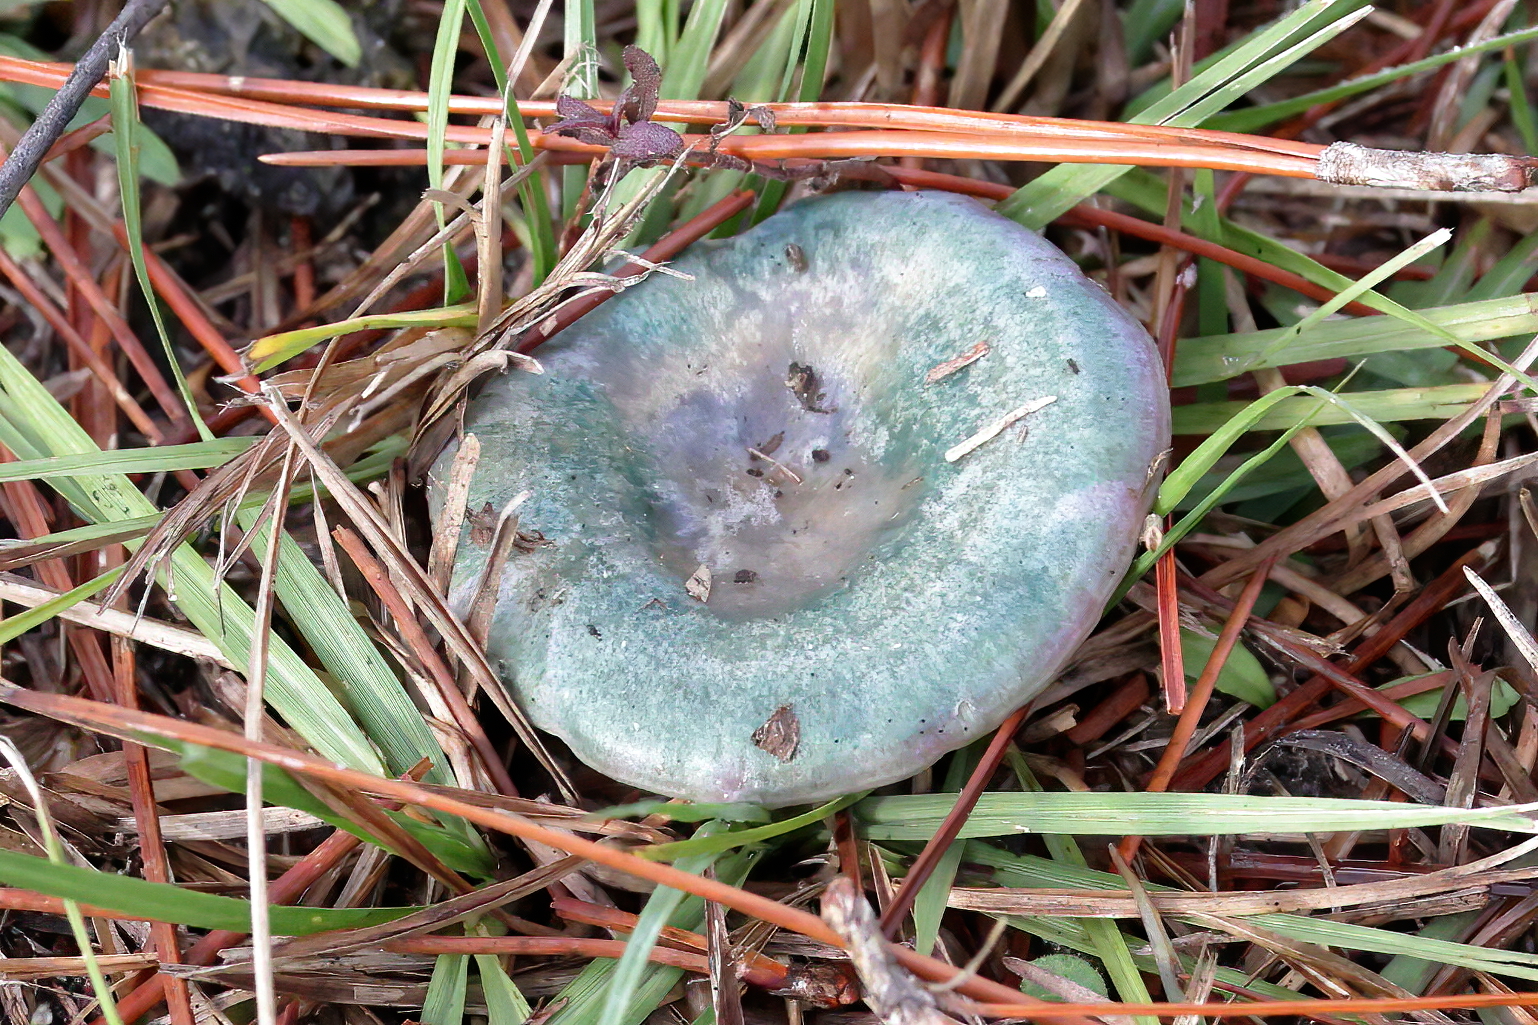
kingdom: Fungi
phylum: Basidiomycota
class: Agaricomycetes
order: Russulales
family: Russulaceae
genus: Lactarius
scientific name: Lactarius paradoxus
